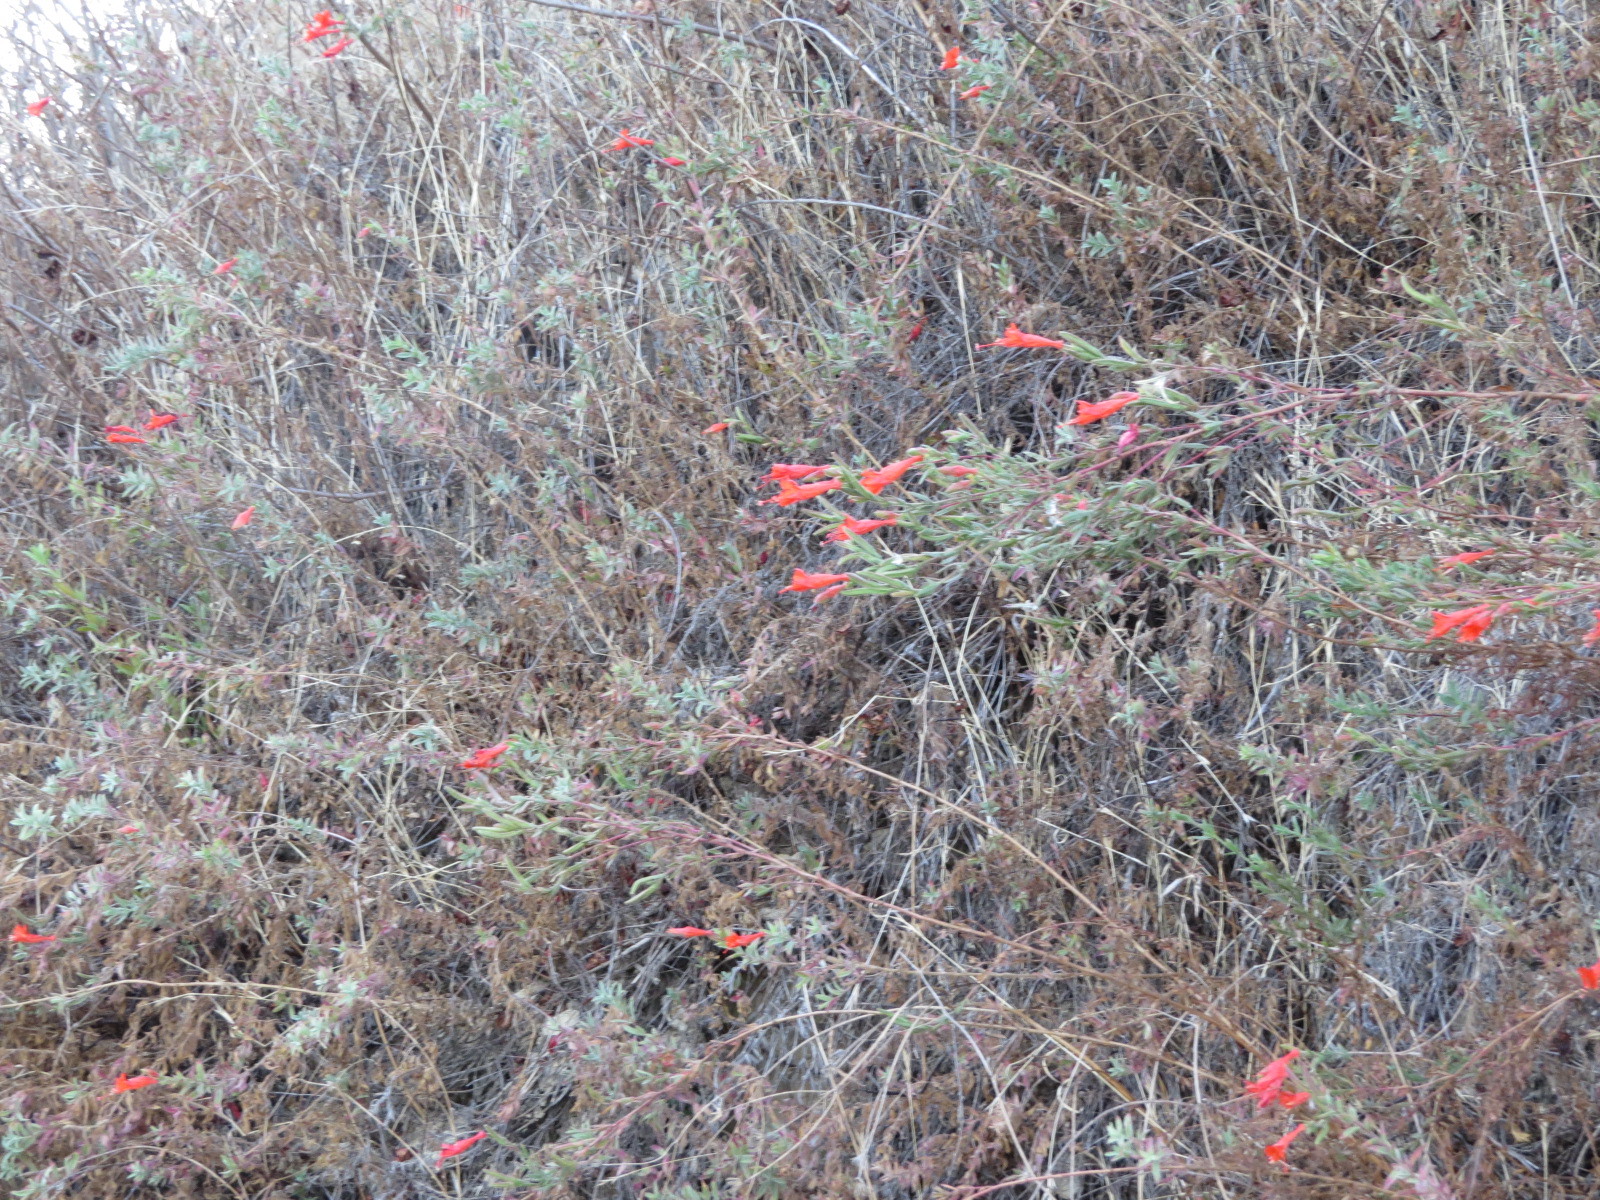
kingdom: Plantae
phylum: Tracheophyta
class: Magnoliopsida
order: Myrtales
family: Onagraceae
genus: Epilobium
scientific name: Epilobium canum
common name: California-fuchsia
